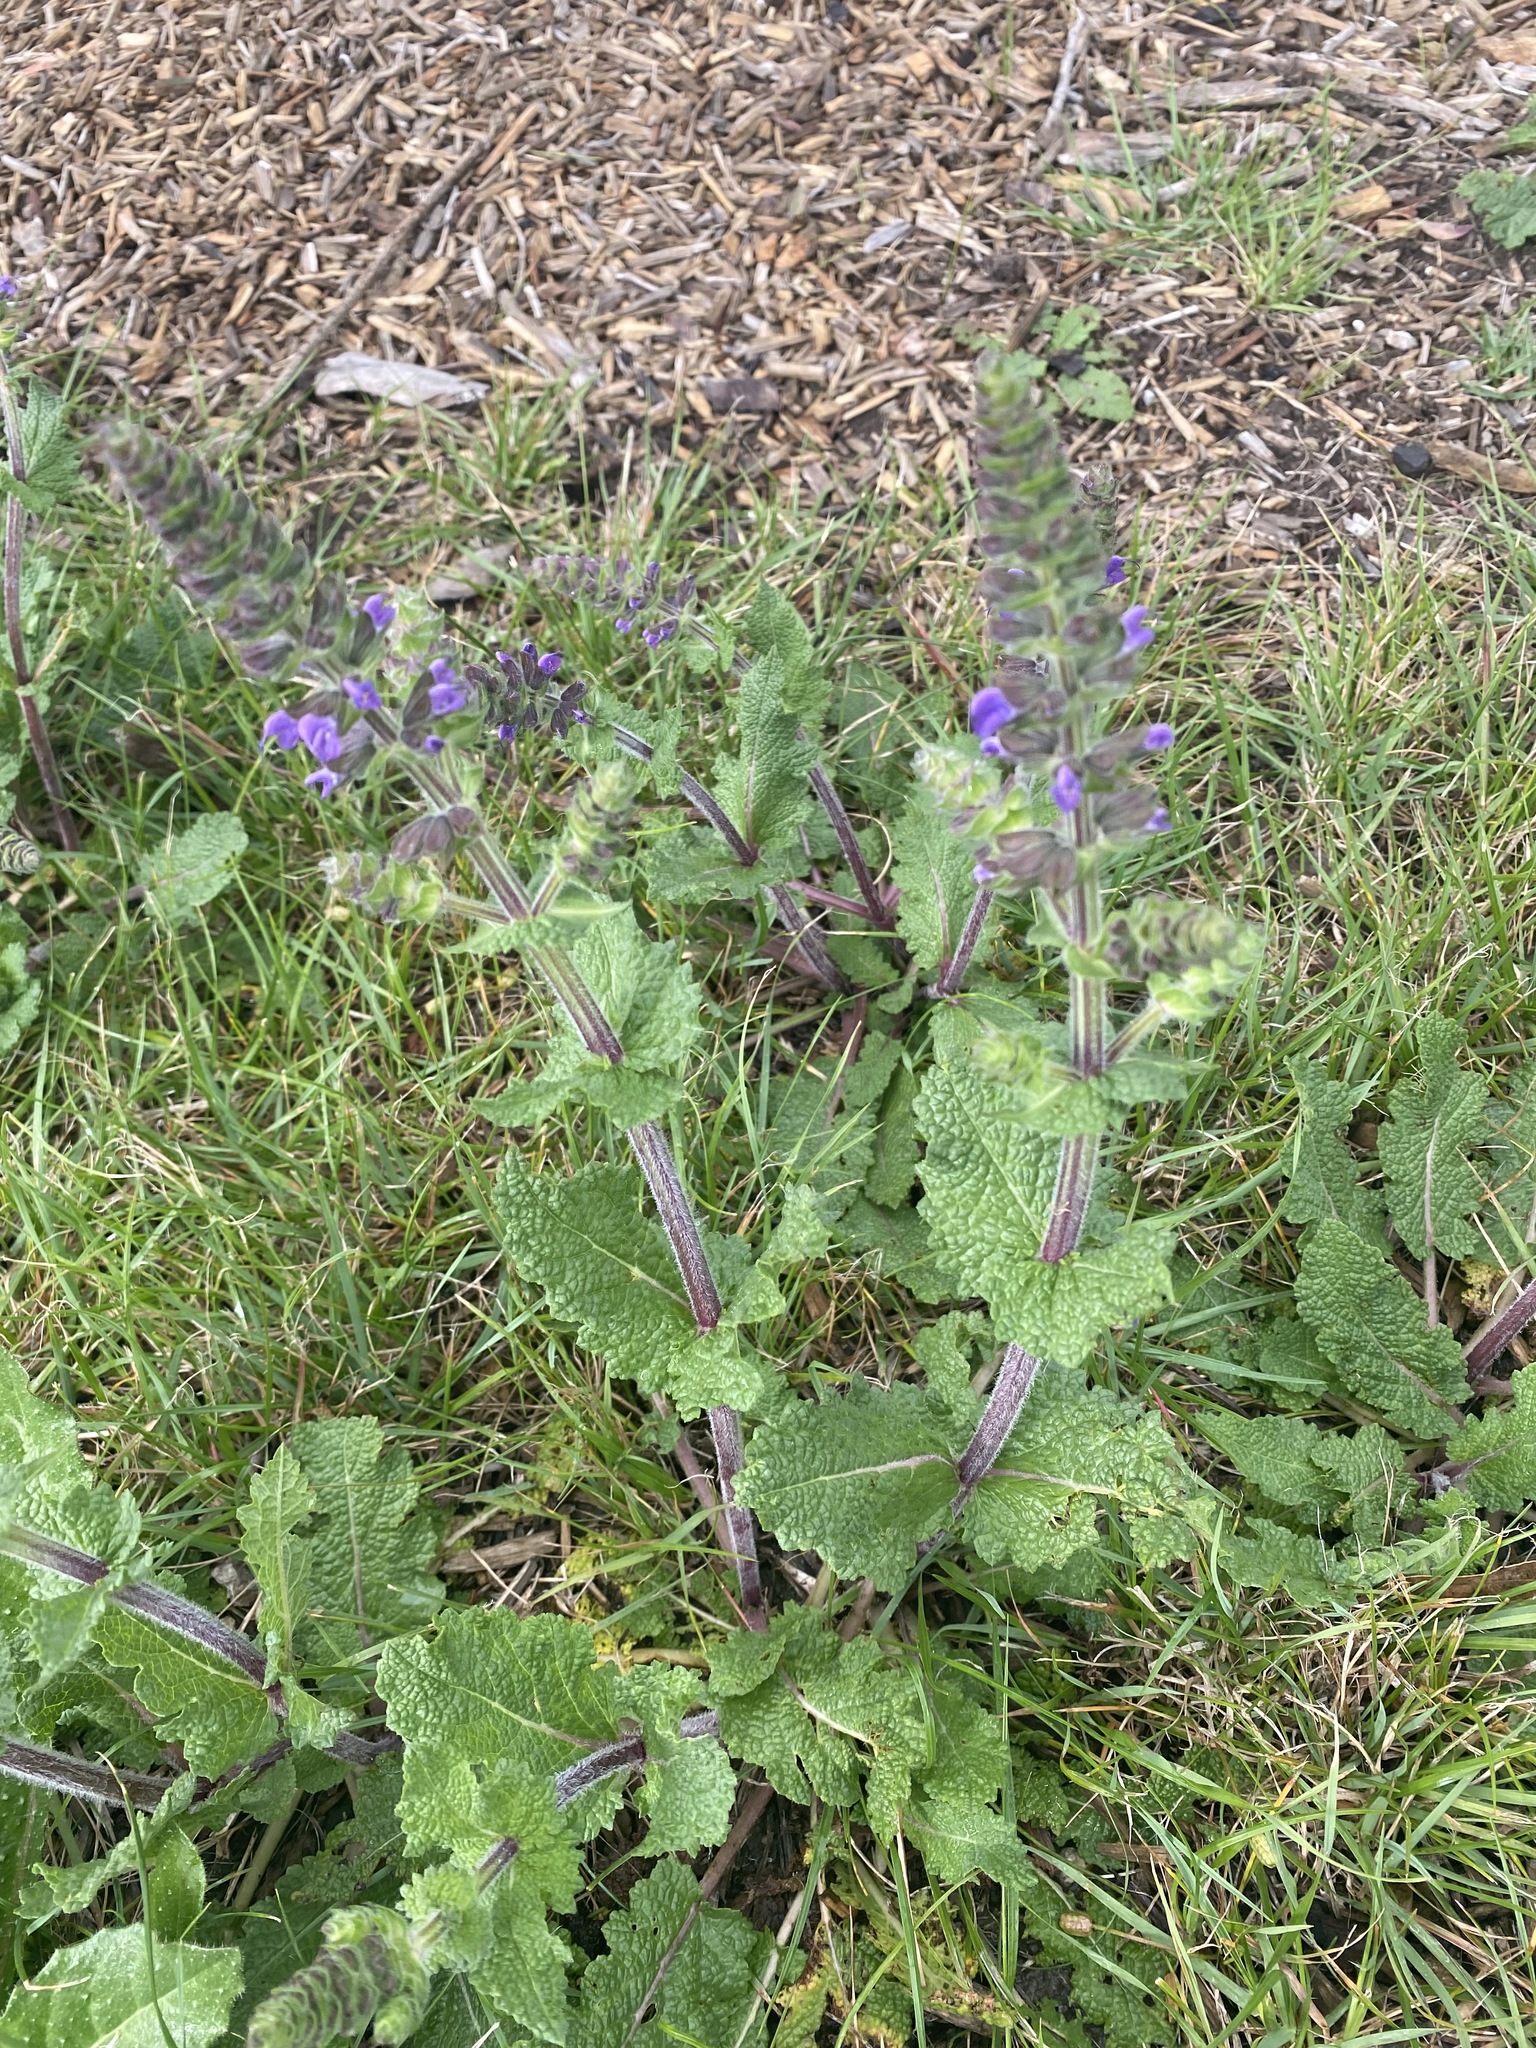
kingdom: Plantae
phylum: Tracheophyta
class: Magnoliopsida
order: Lamiales
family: Lamiaceae
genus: Salvia
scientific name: Salvia verbenaca
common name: Wild clary
